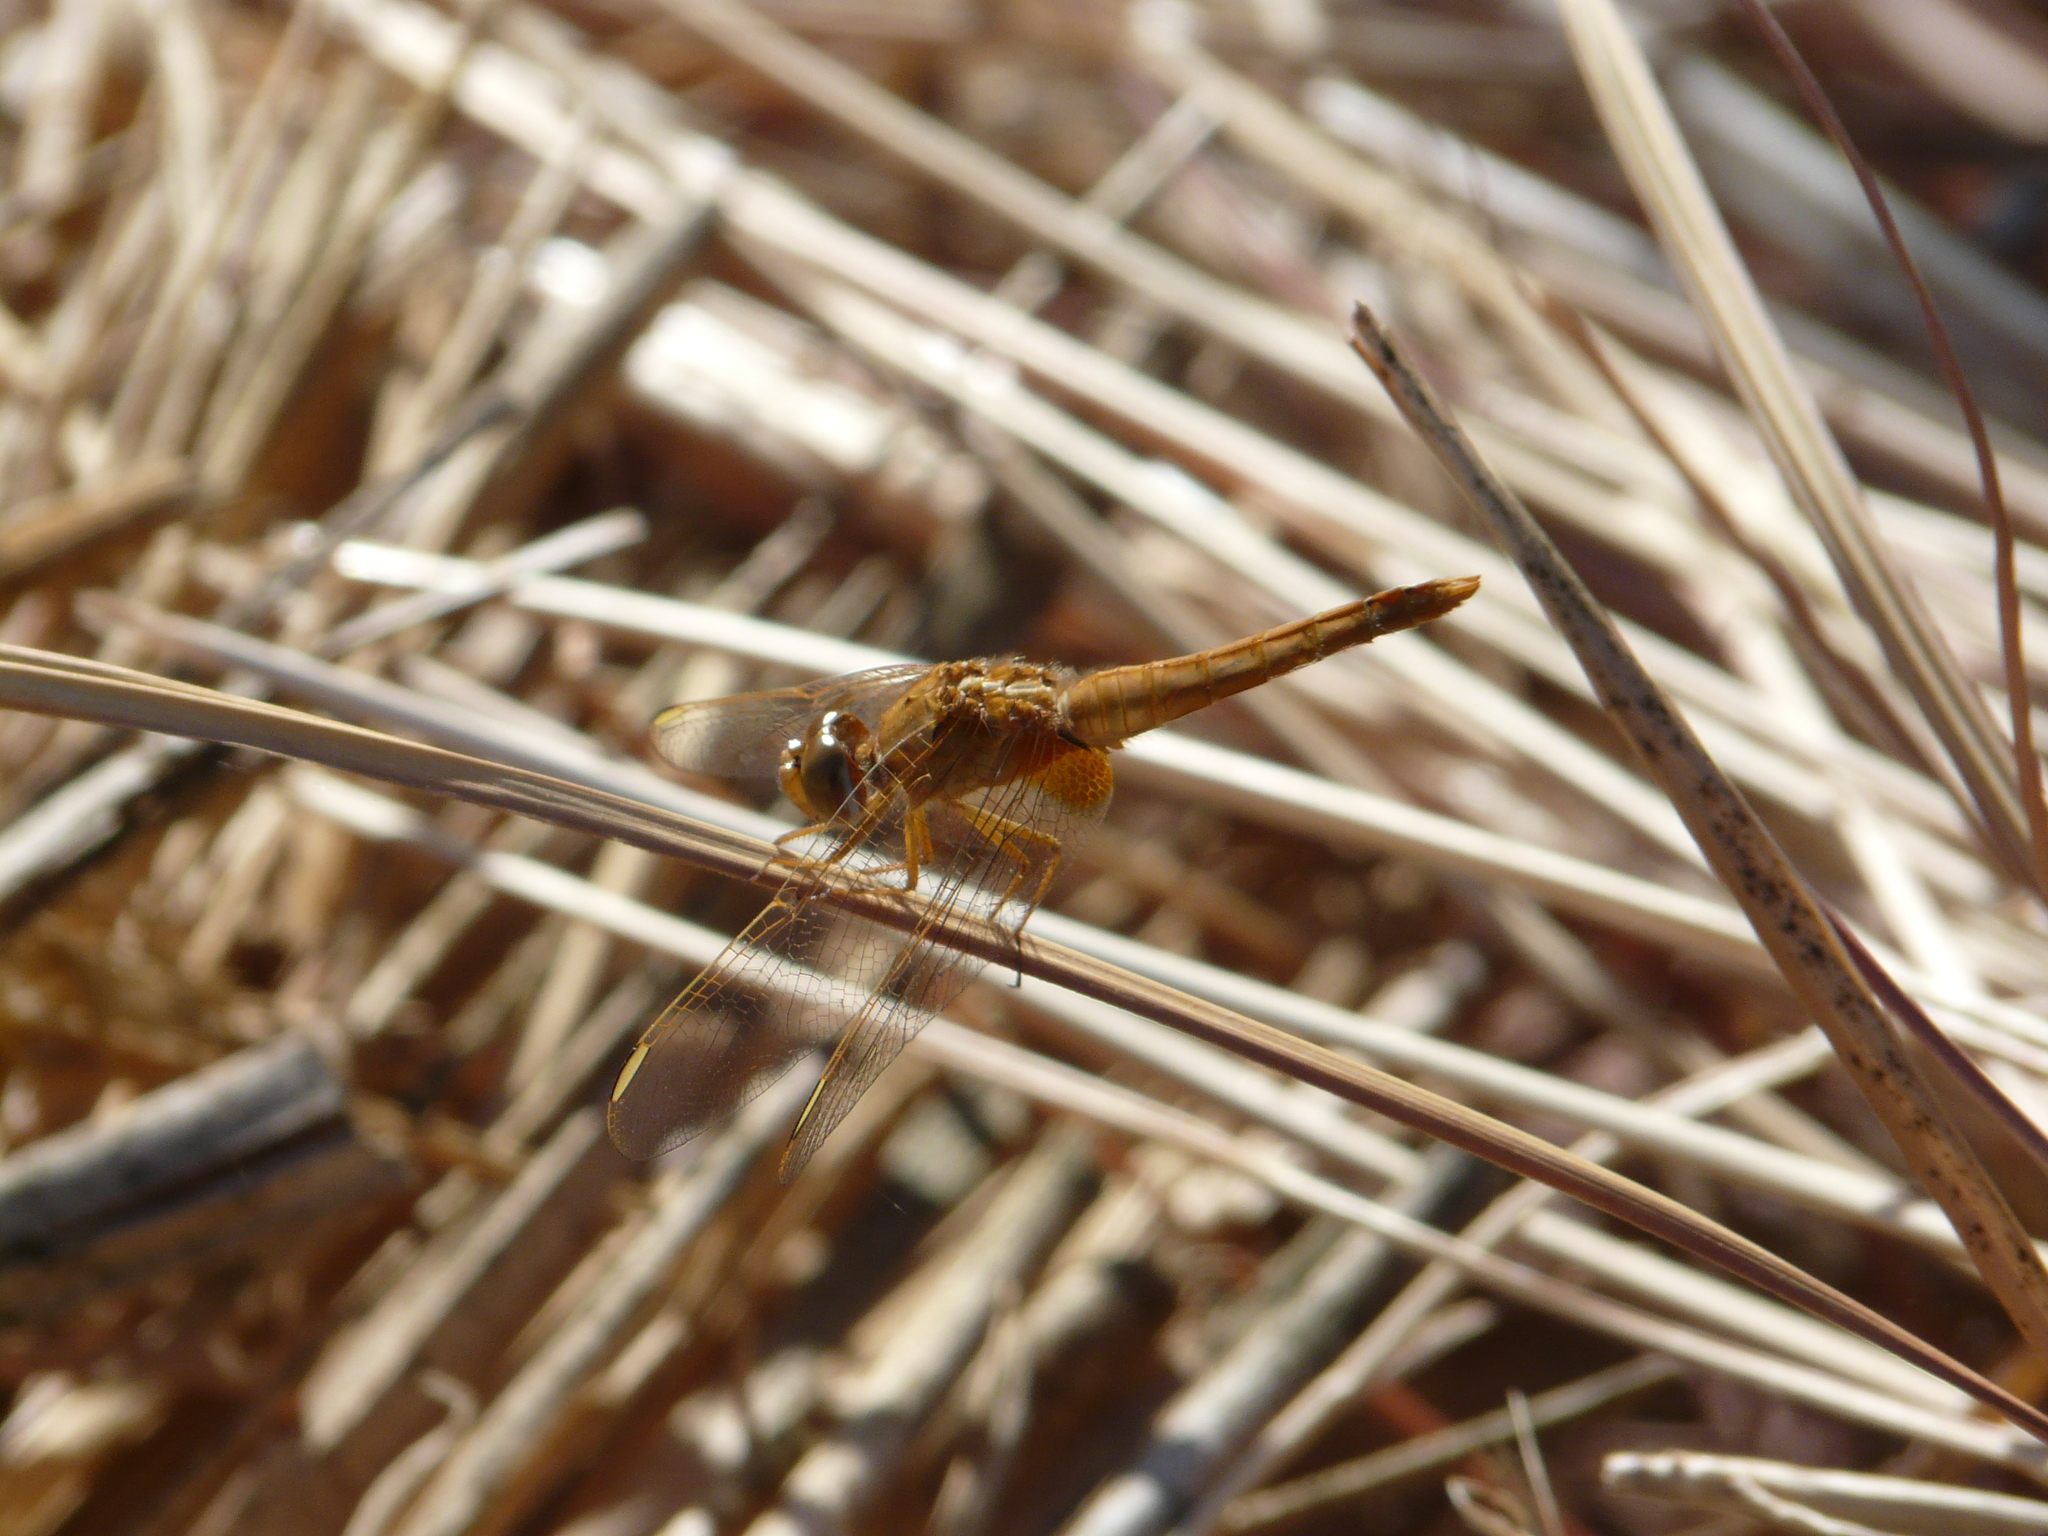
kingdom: Animalia
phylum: Arthropoda
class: Insecta
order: Odonata
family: Libellulidae
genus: Crocothemis
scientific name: Crocothemis erythraea
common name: Scarlet dragonfly
